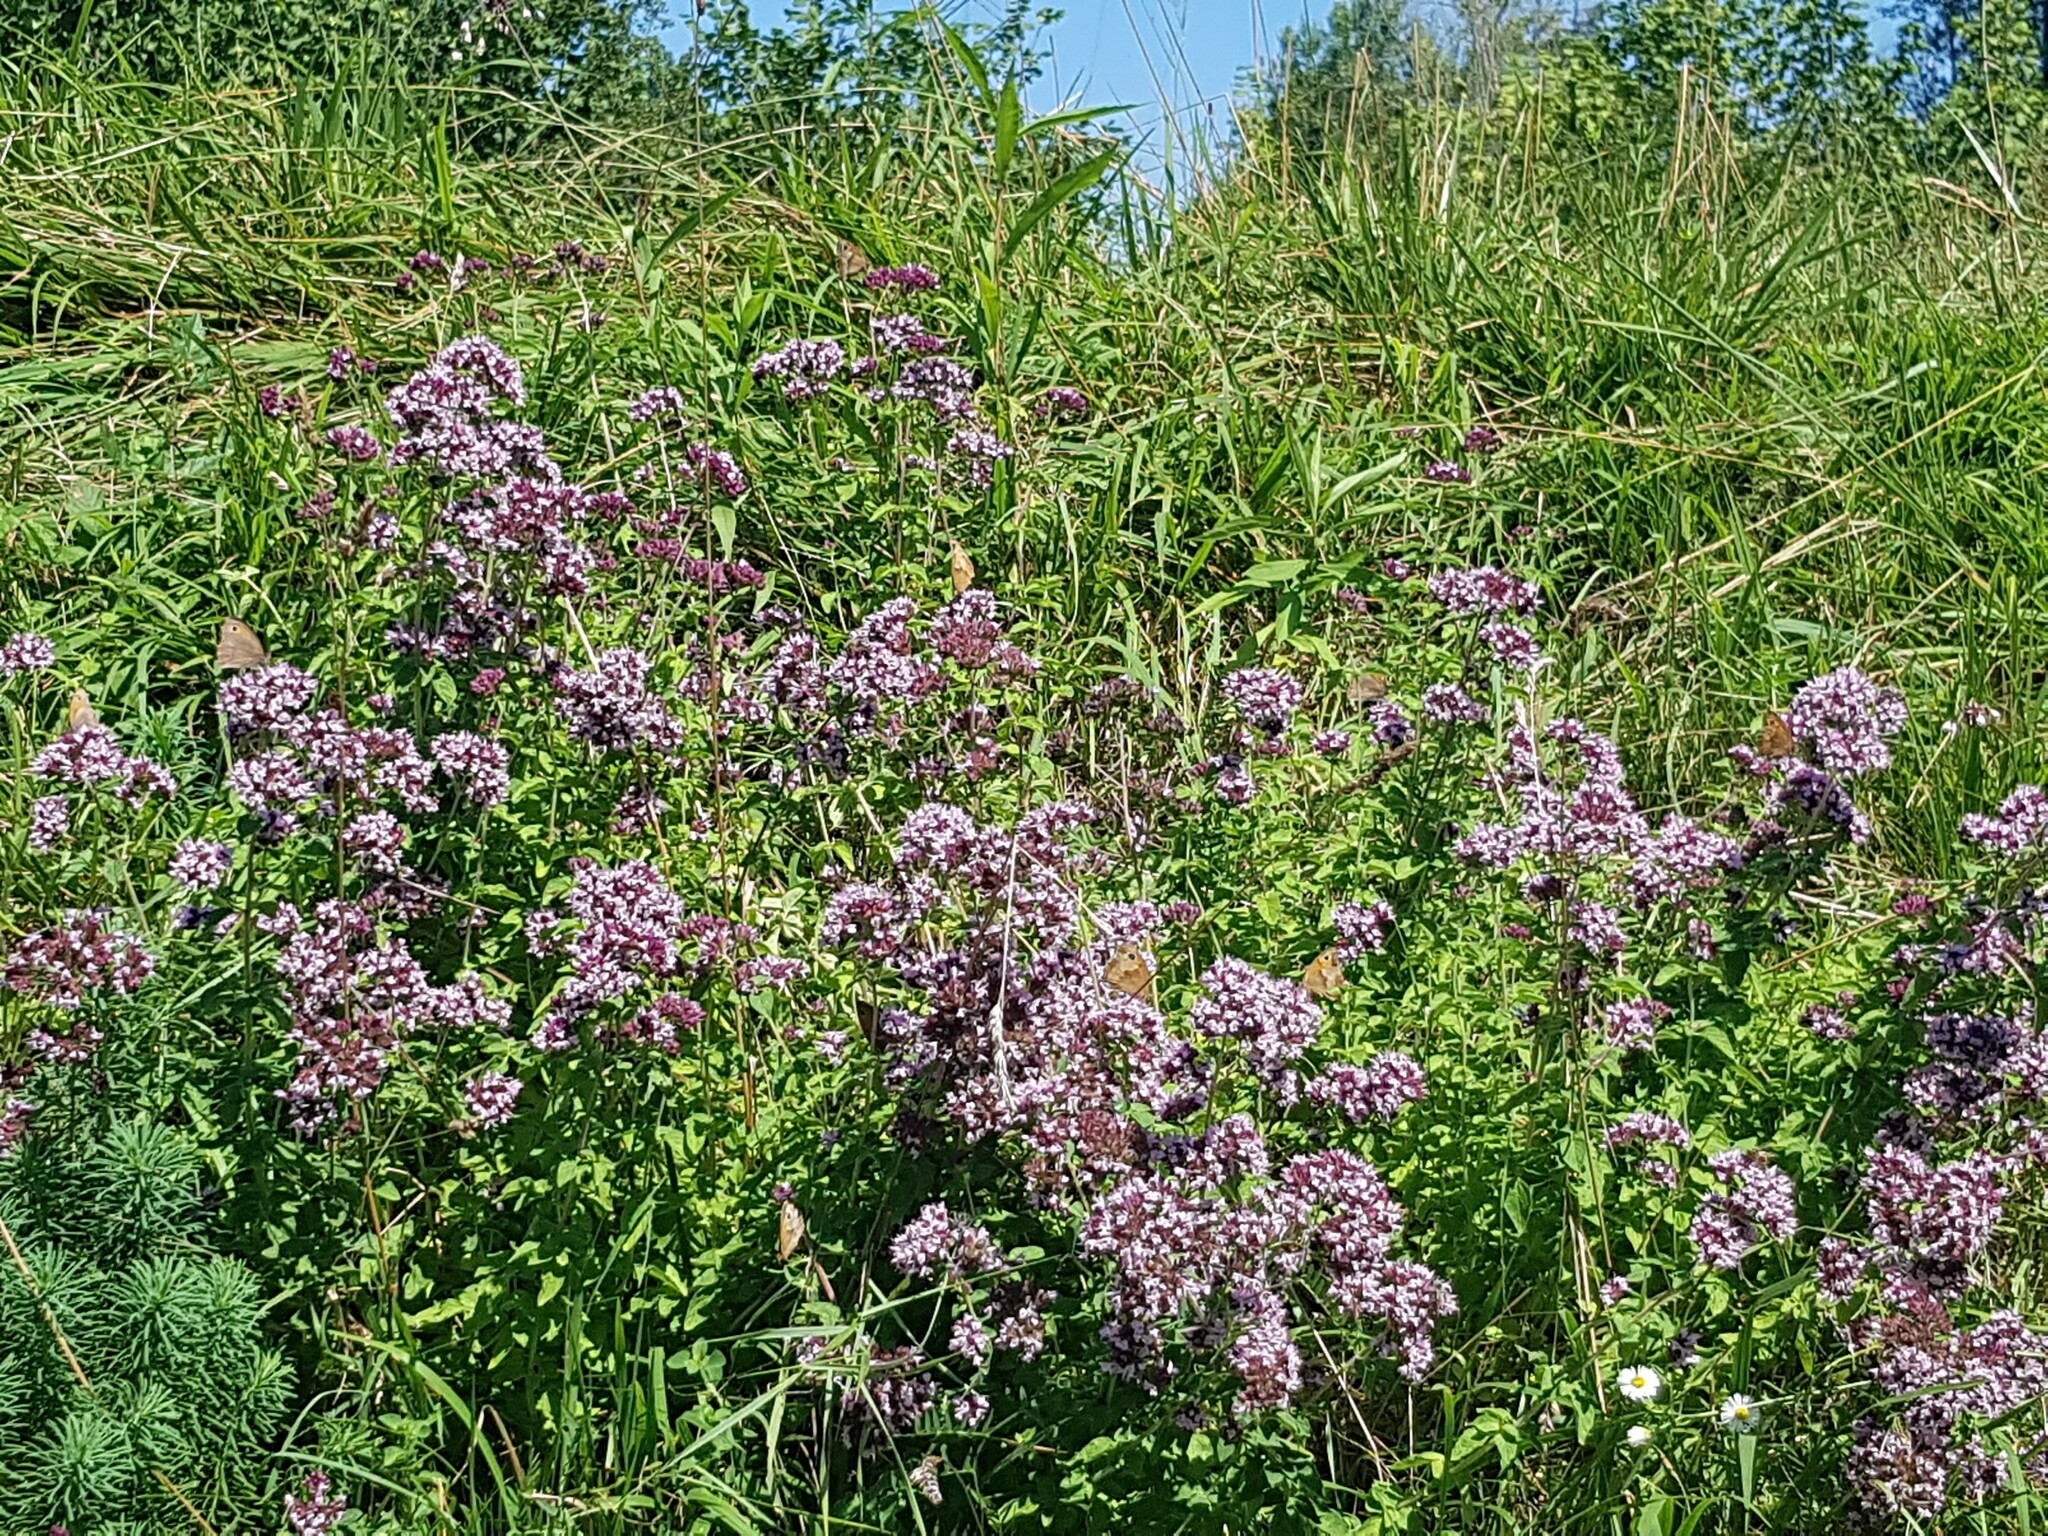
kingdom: Plantae
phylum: Tracheophyta
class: Magnoliopsida
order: Lamiales
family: Lamiaceae
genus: Origanum
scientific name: Origanum vulgare
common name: Wild marjoram
